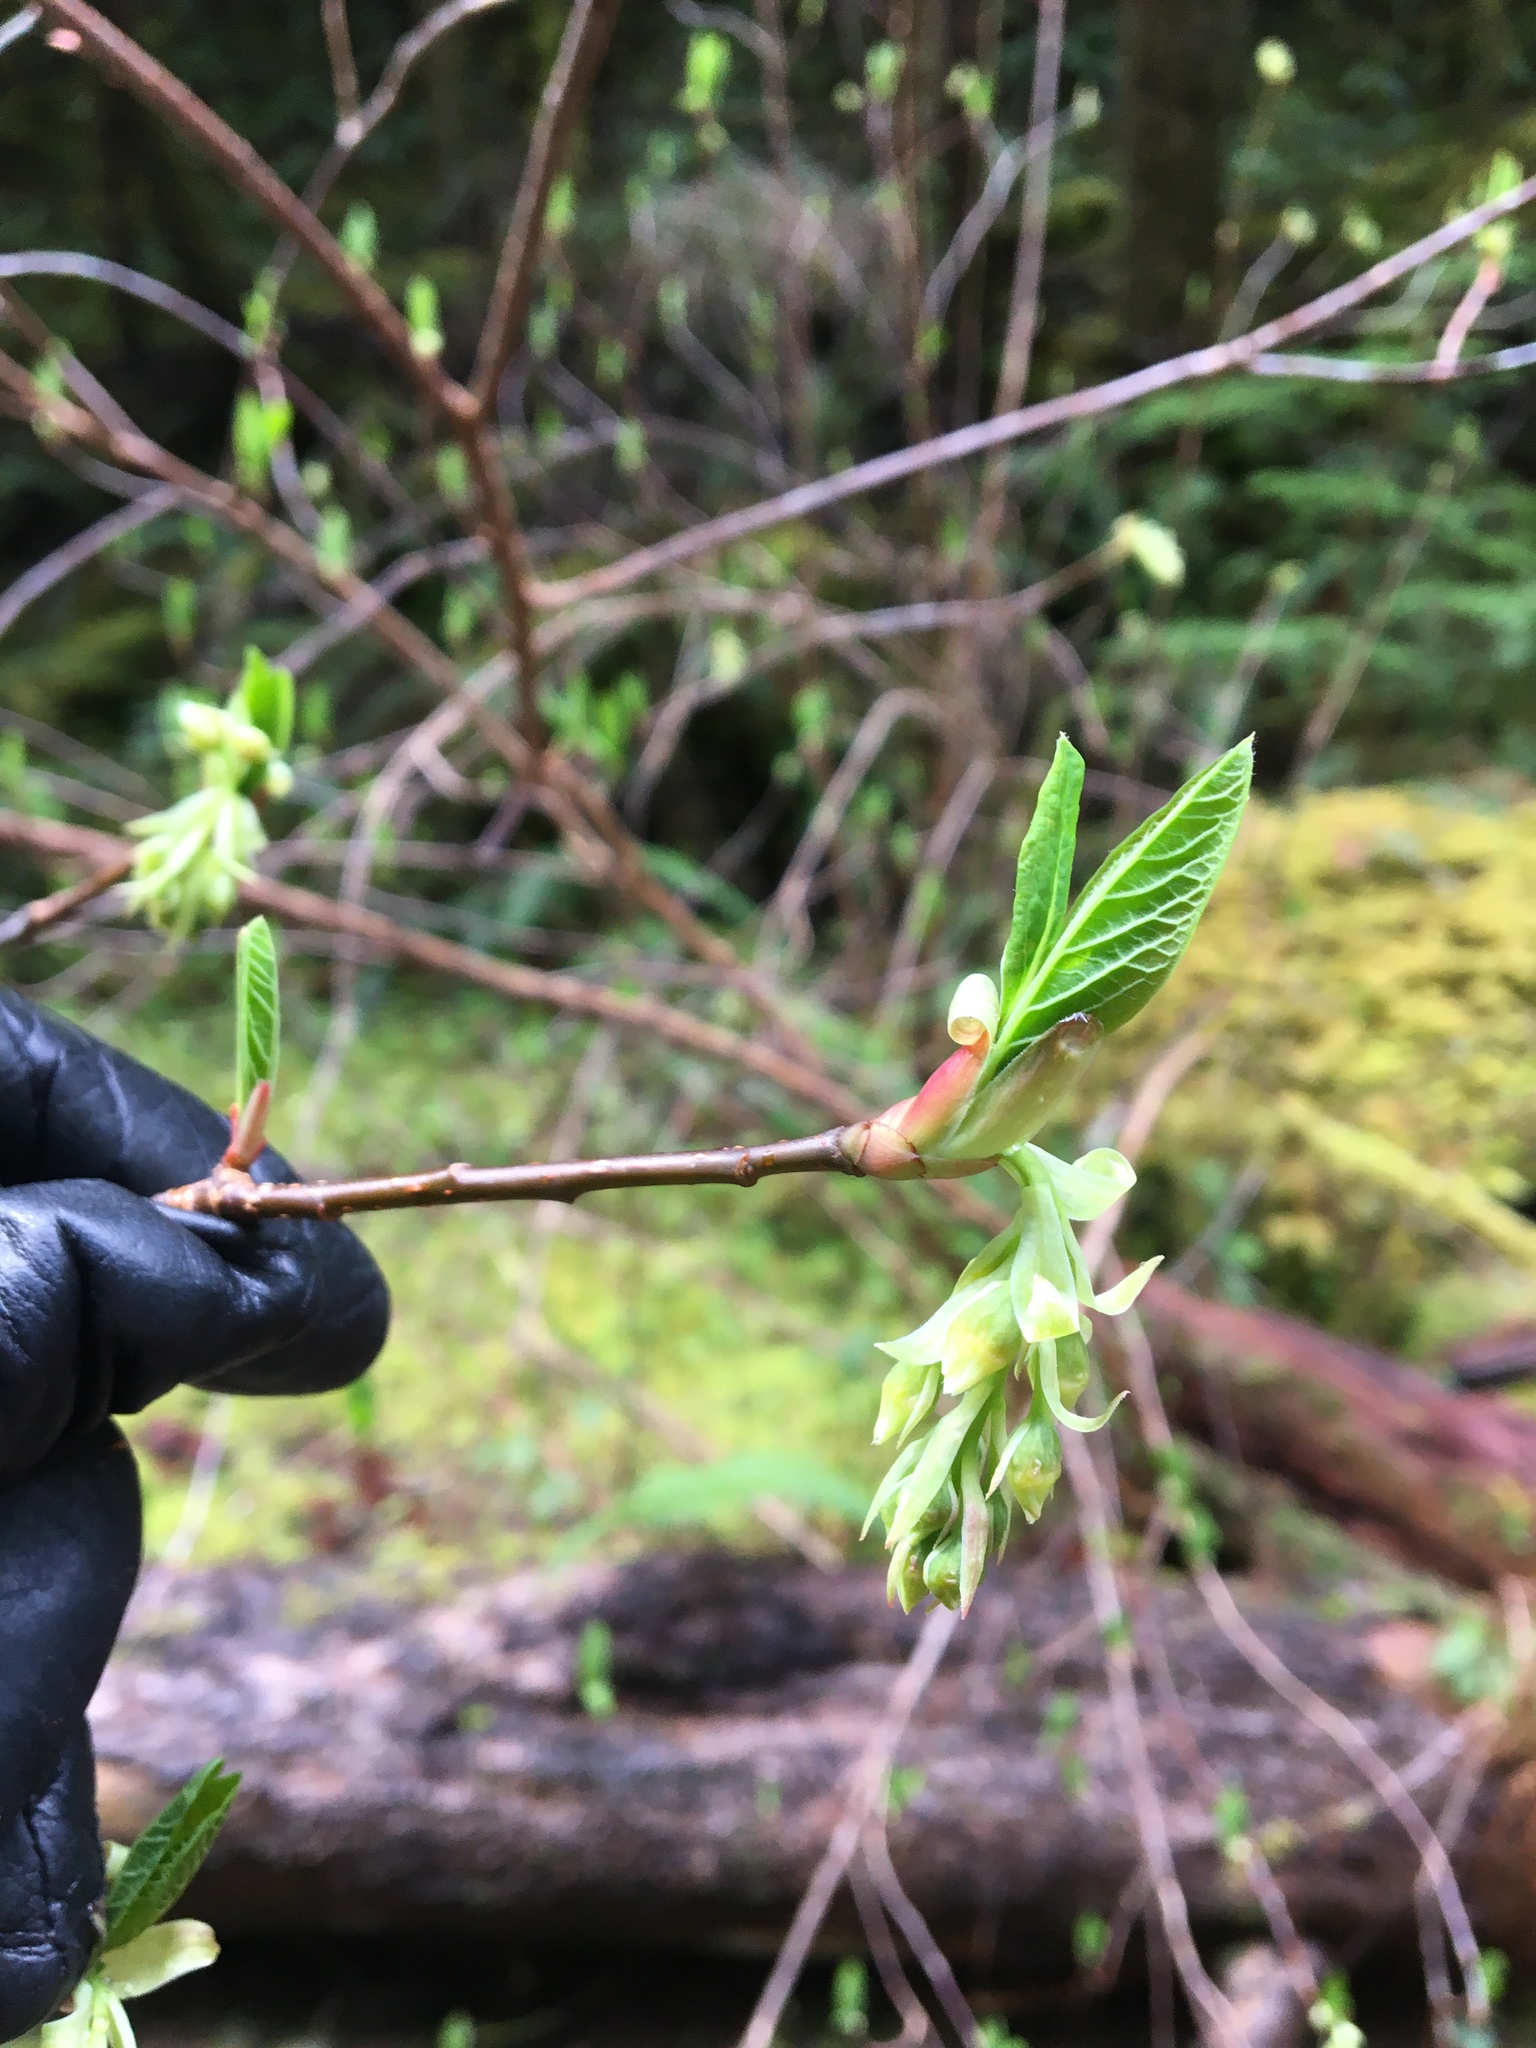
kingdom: Plantae
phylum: Tracheophyta
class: Magnoliopsida
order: Rosales
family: Rosaceae
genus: Oemleria
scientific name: Oemleria cerasiformis
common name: Osoberry
